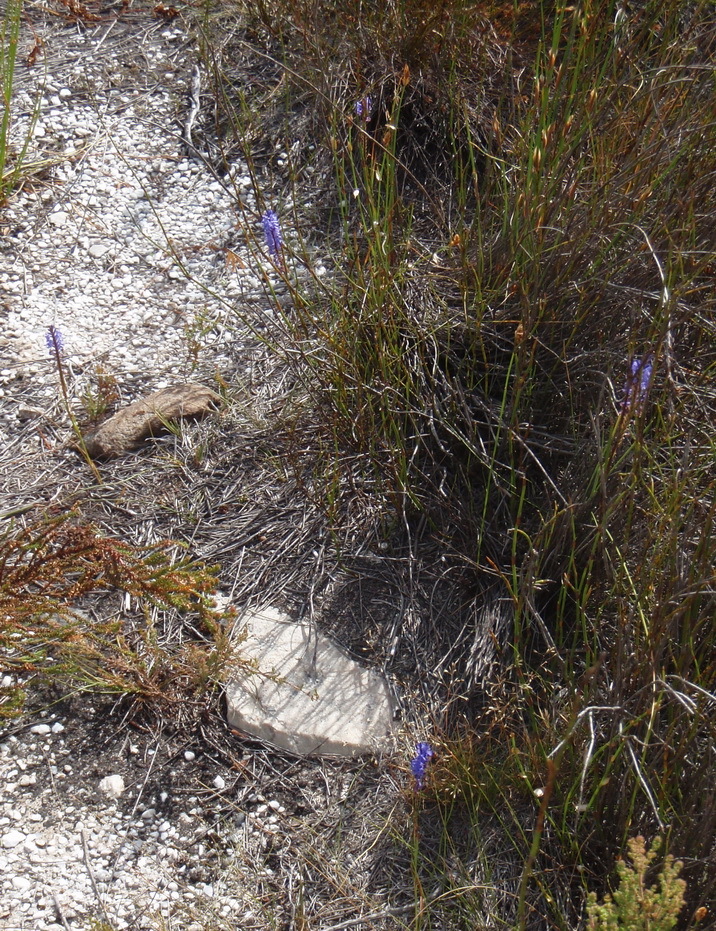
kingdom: Plantae
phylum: Tracheophyta
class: Liliopsida
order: Asparagales
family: Iridaceae
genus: Micranthus
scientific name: Micranthus alopecuroides
